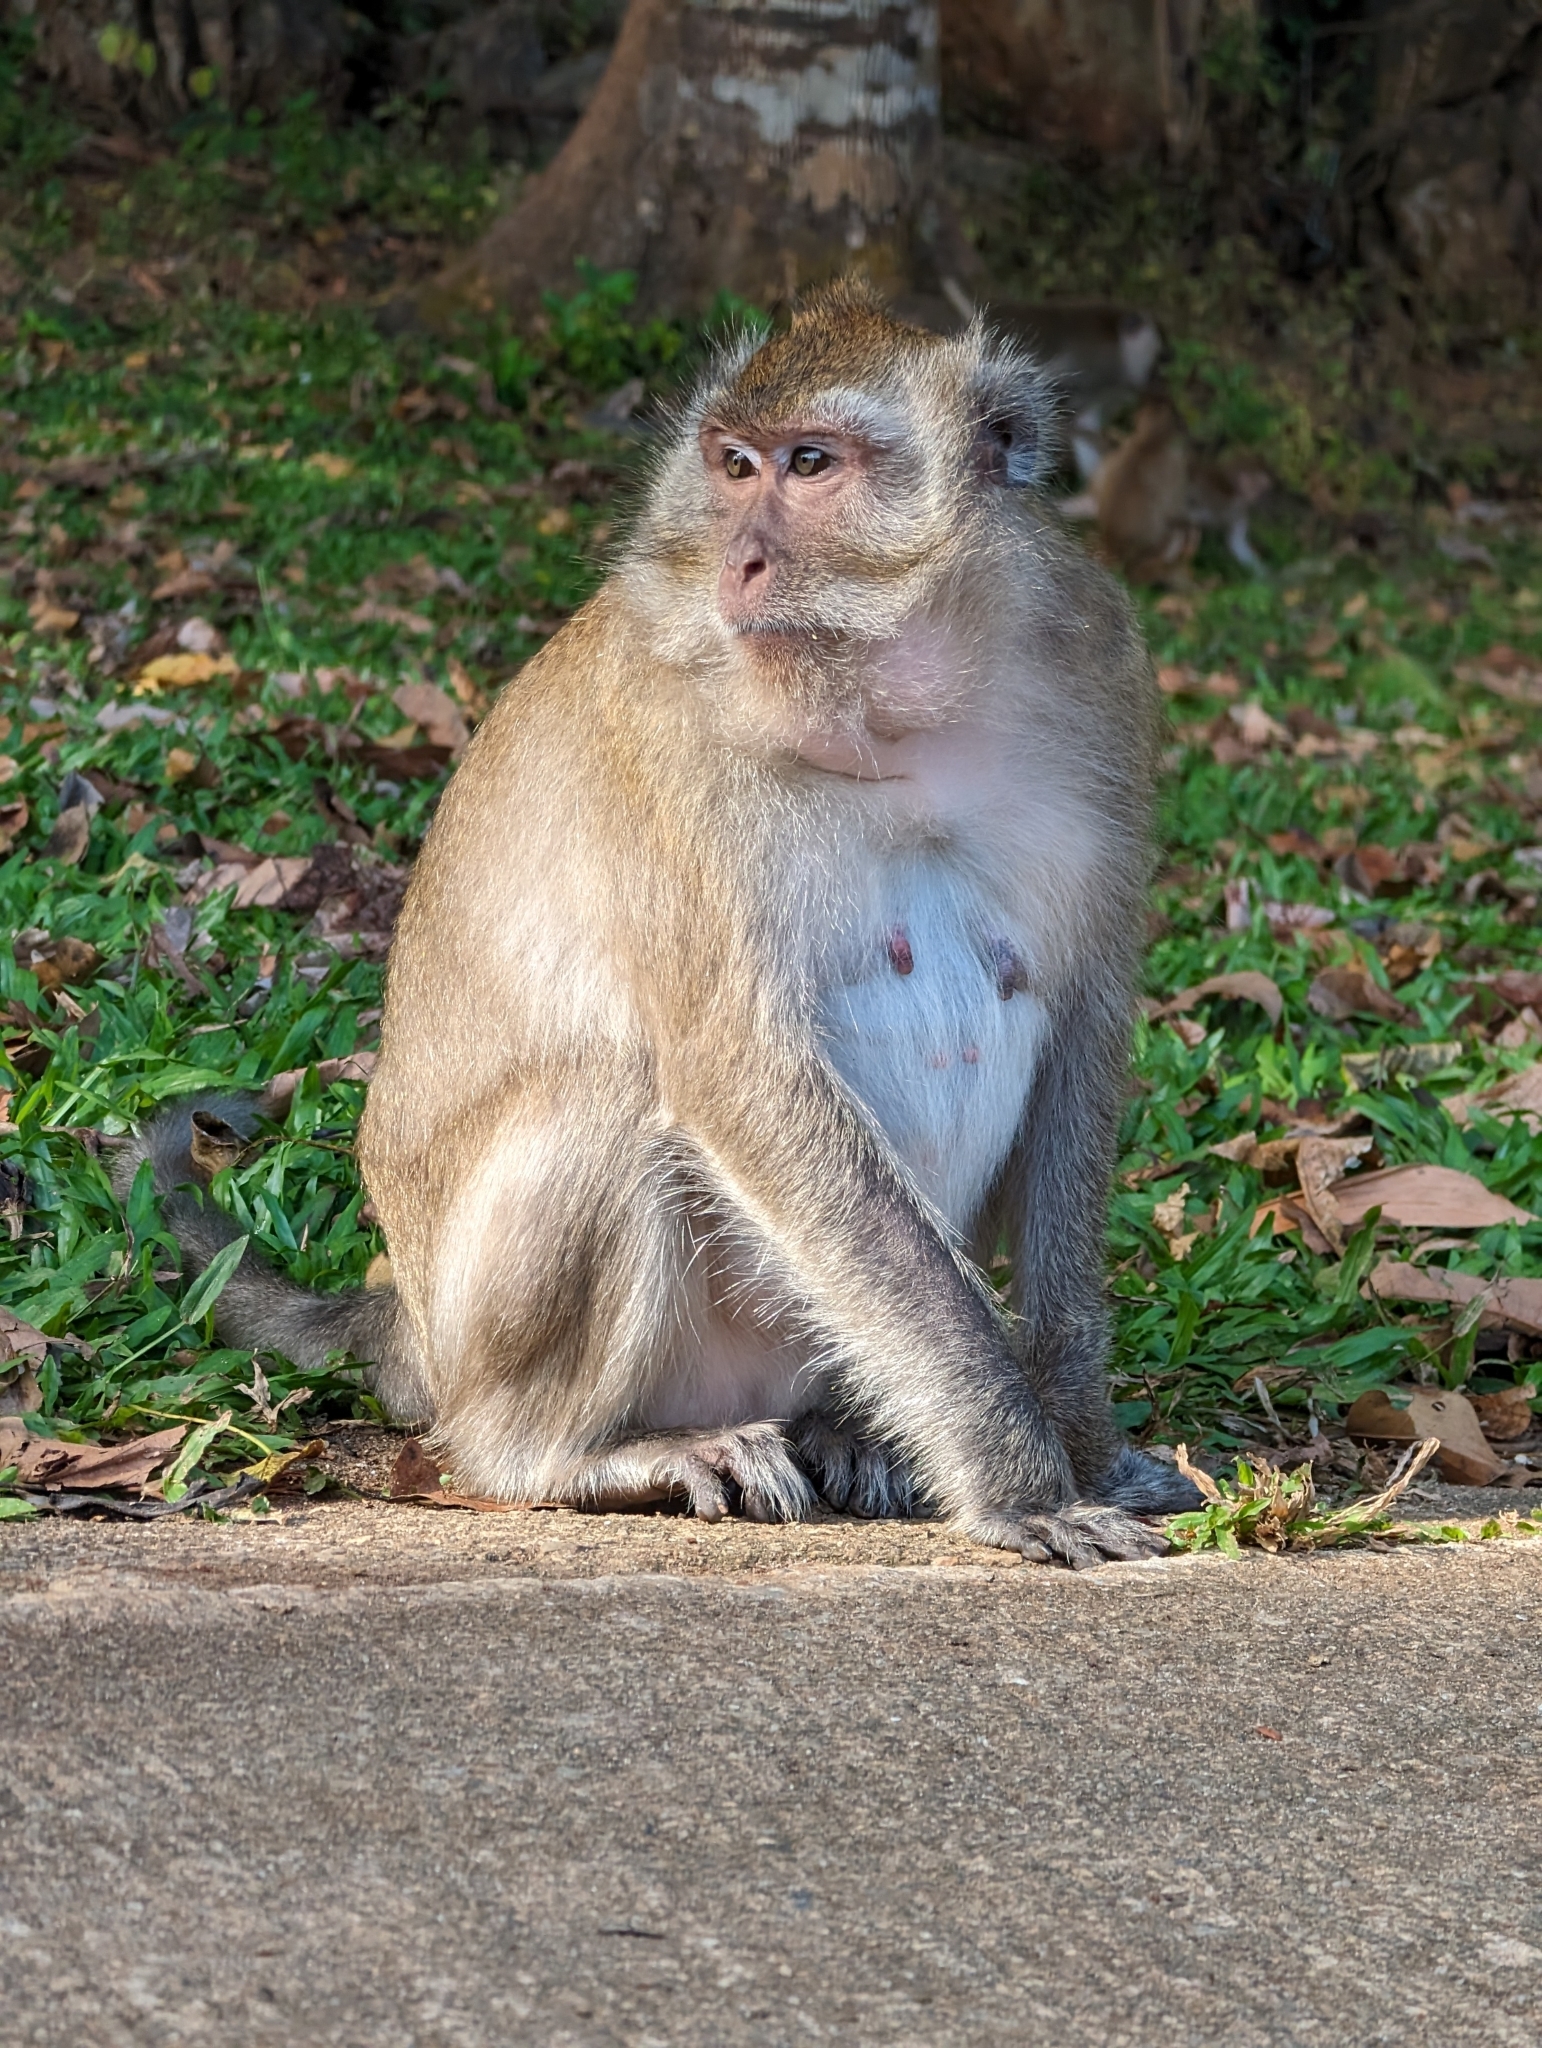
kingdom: Animalia
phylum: Chordata
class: Mammalia
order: Primates
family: Cercopithecidae
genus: Macaca
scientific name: Macaca fascicularis
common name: Crab-eating macaque
